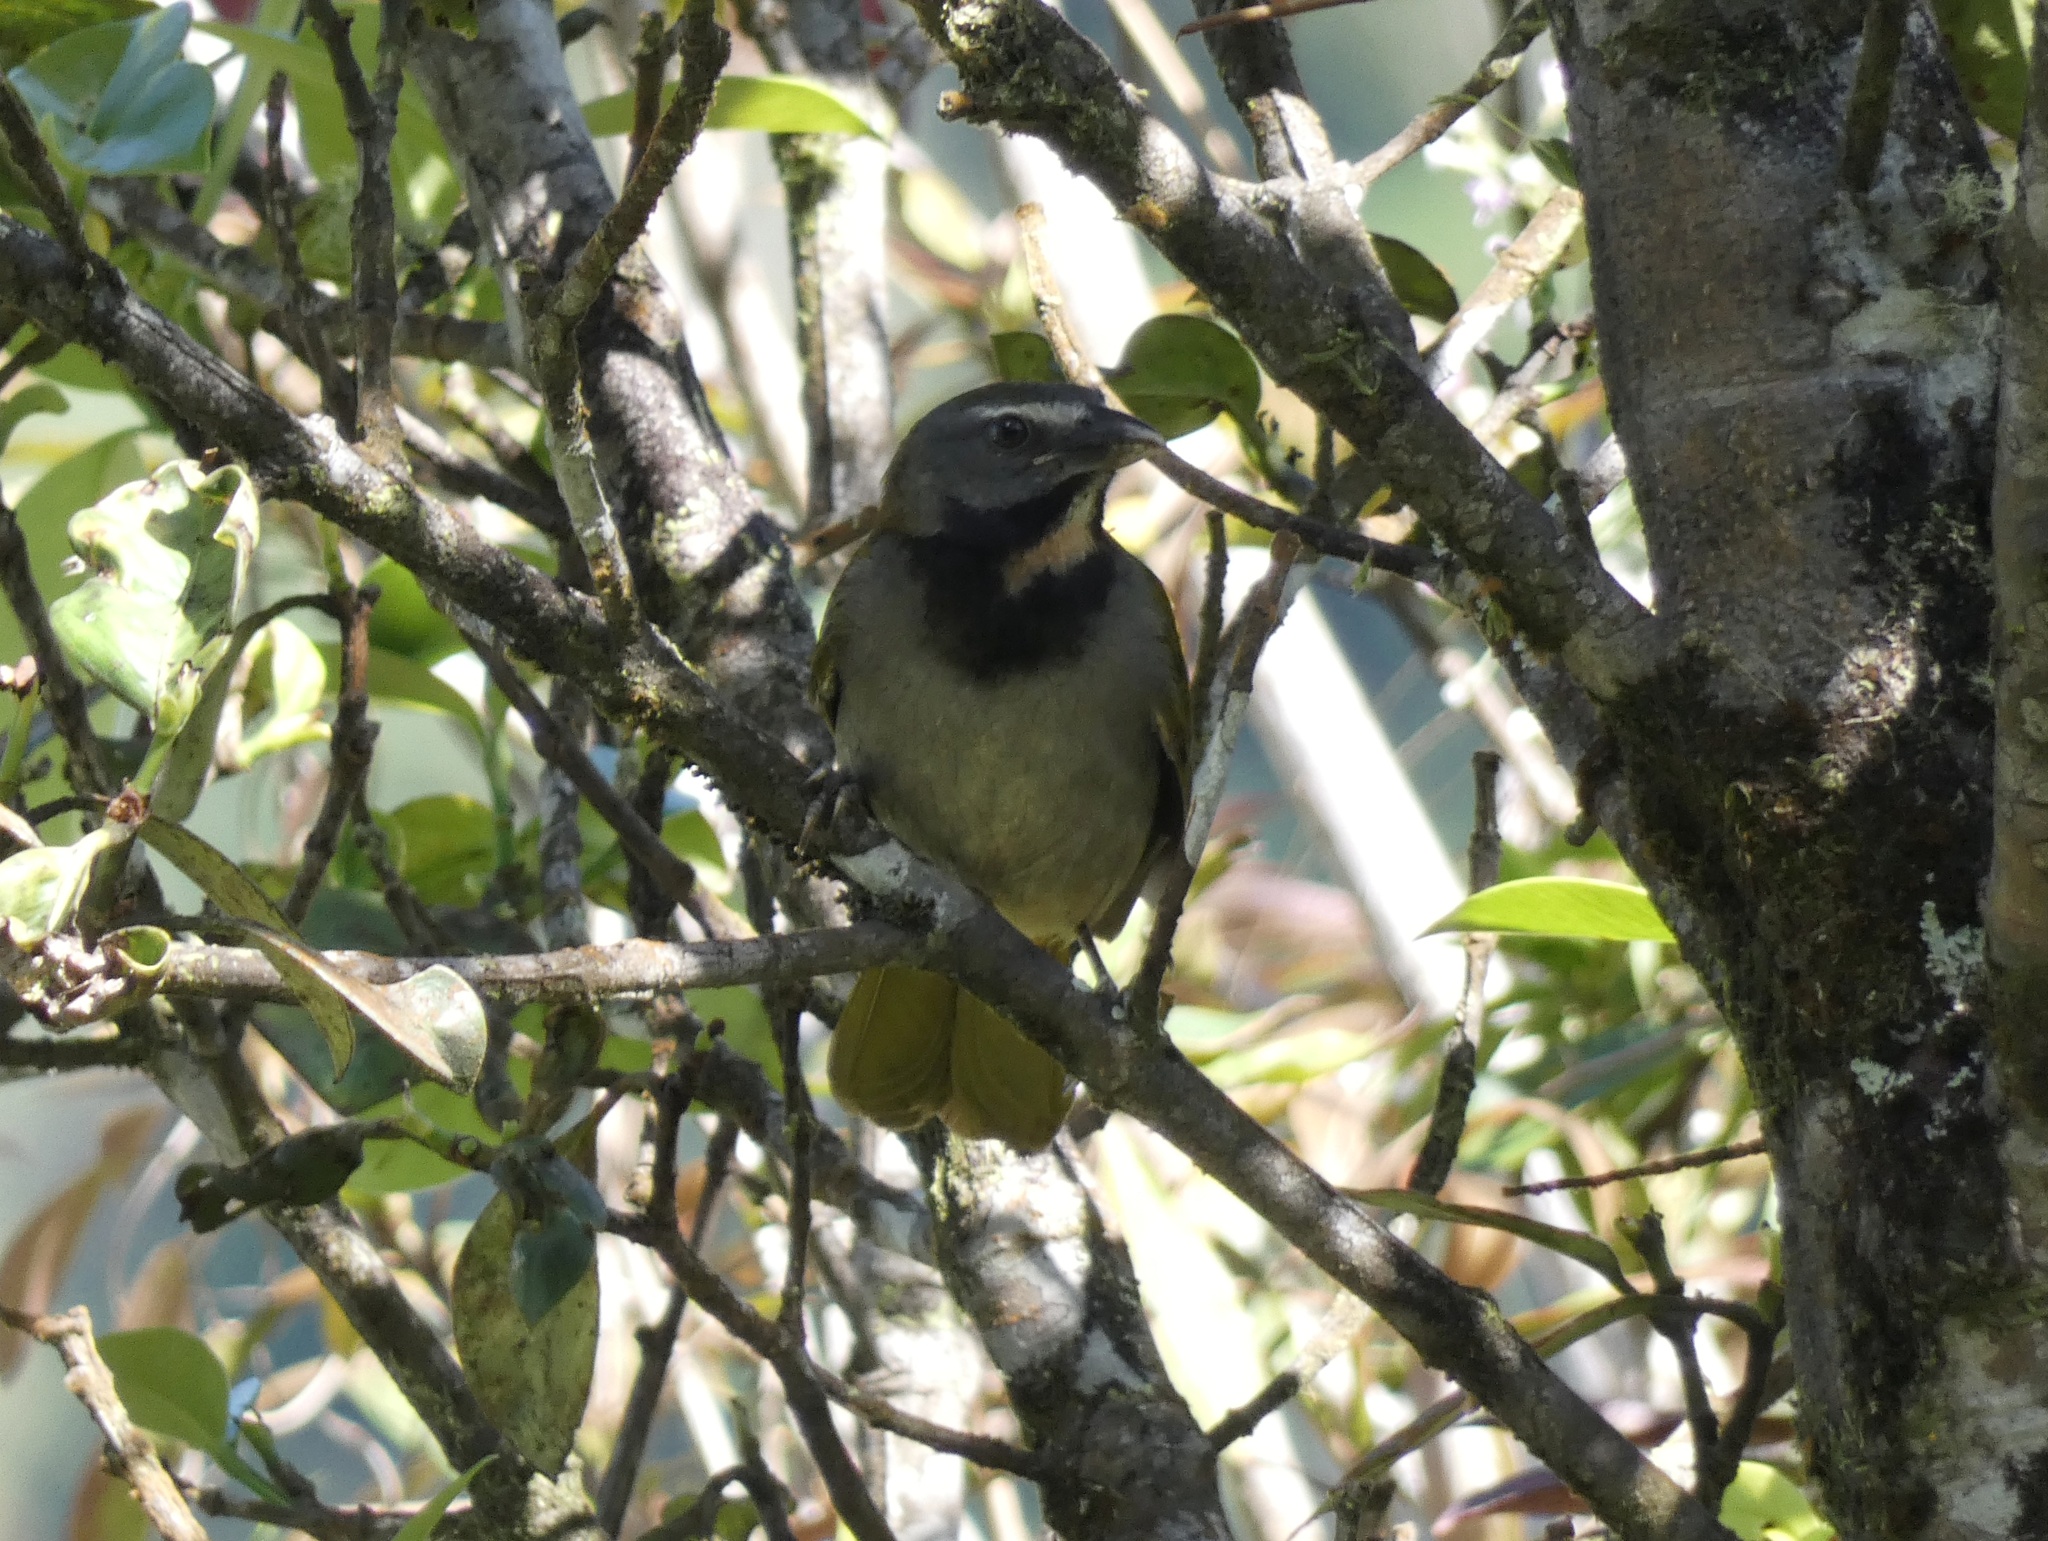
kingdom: Animalia
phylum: Chordata
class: Aves
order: Passeriformes
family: Thraupidae
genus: Saltator
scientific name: Saltator maximus
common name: Buff-throated saltator
